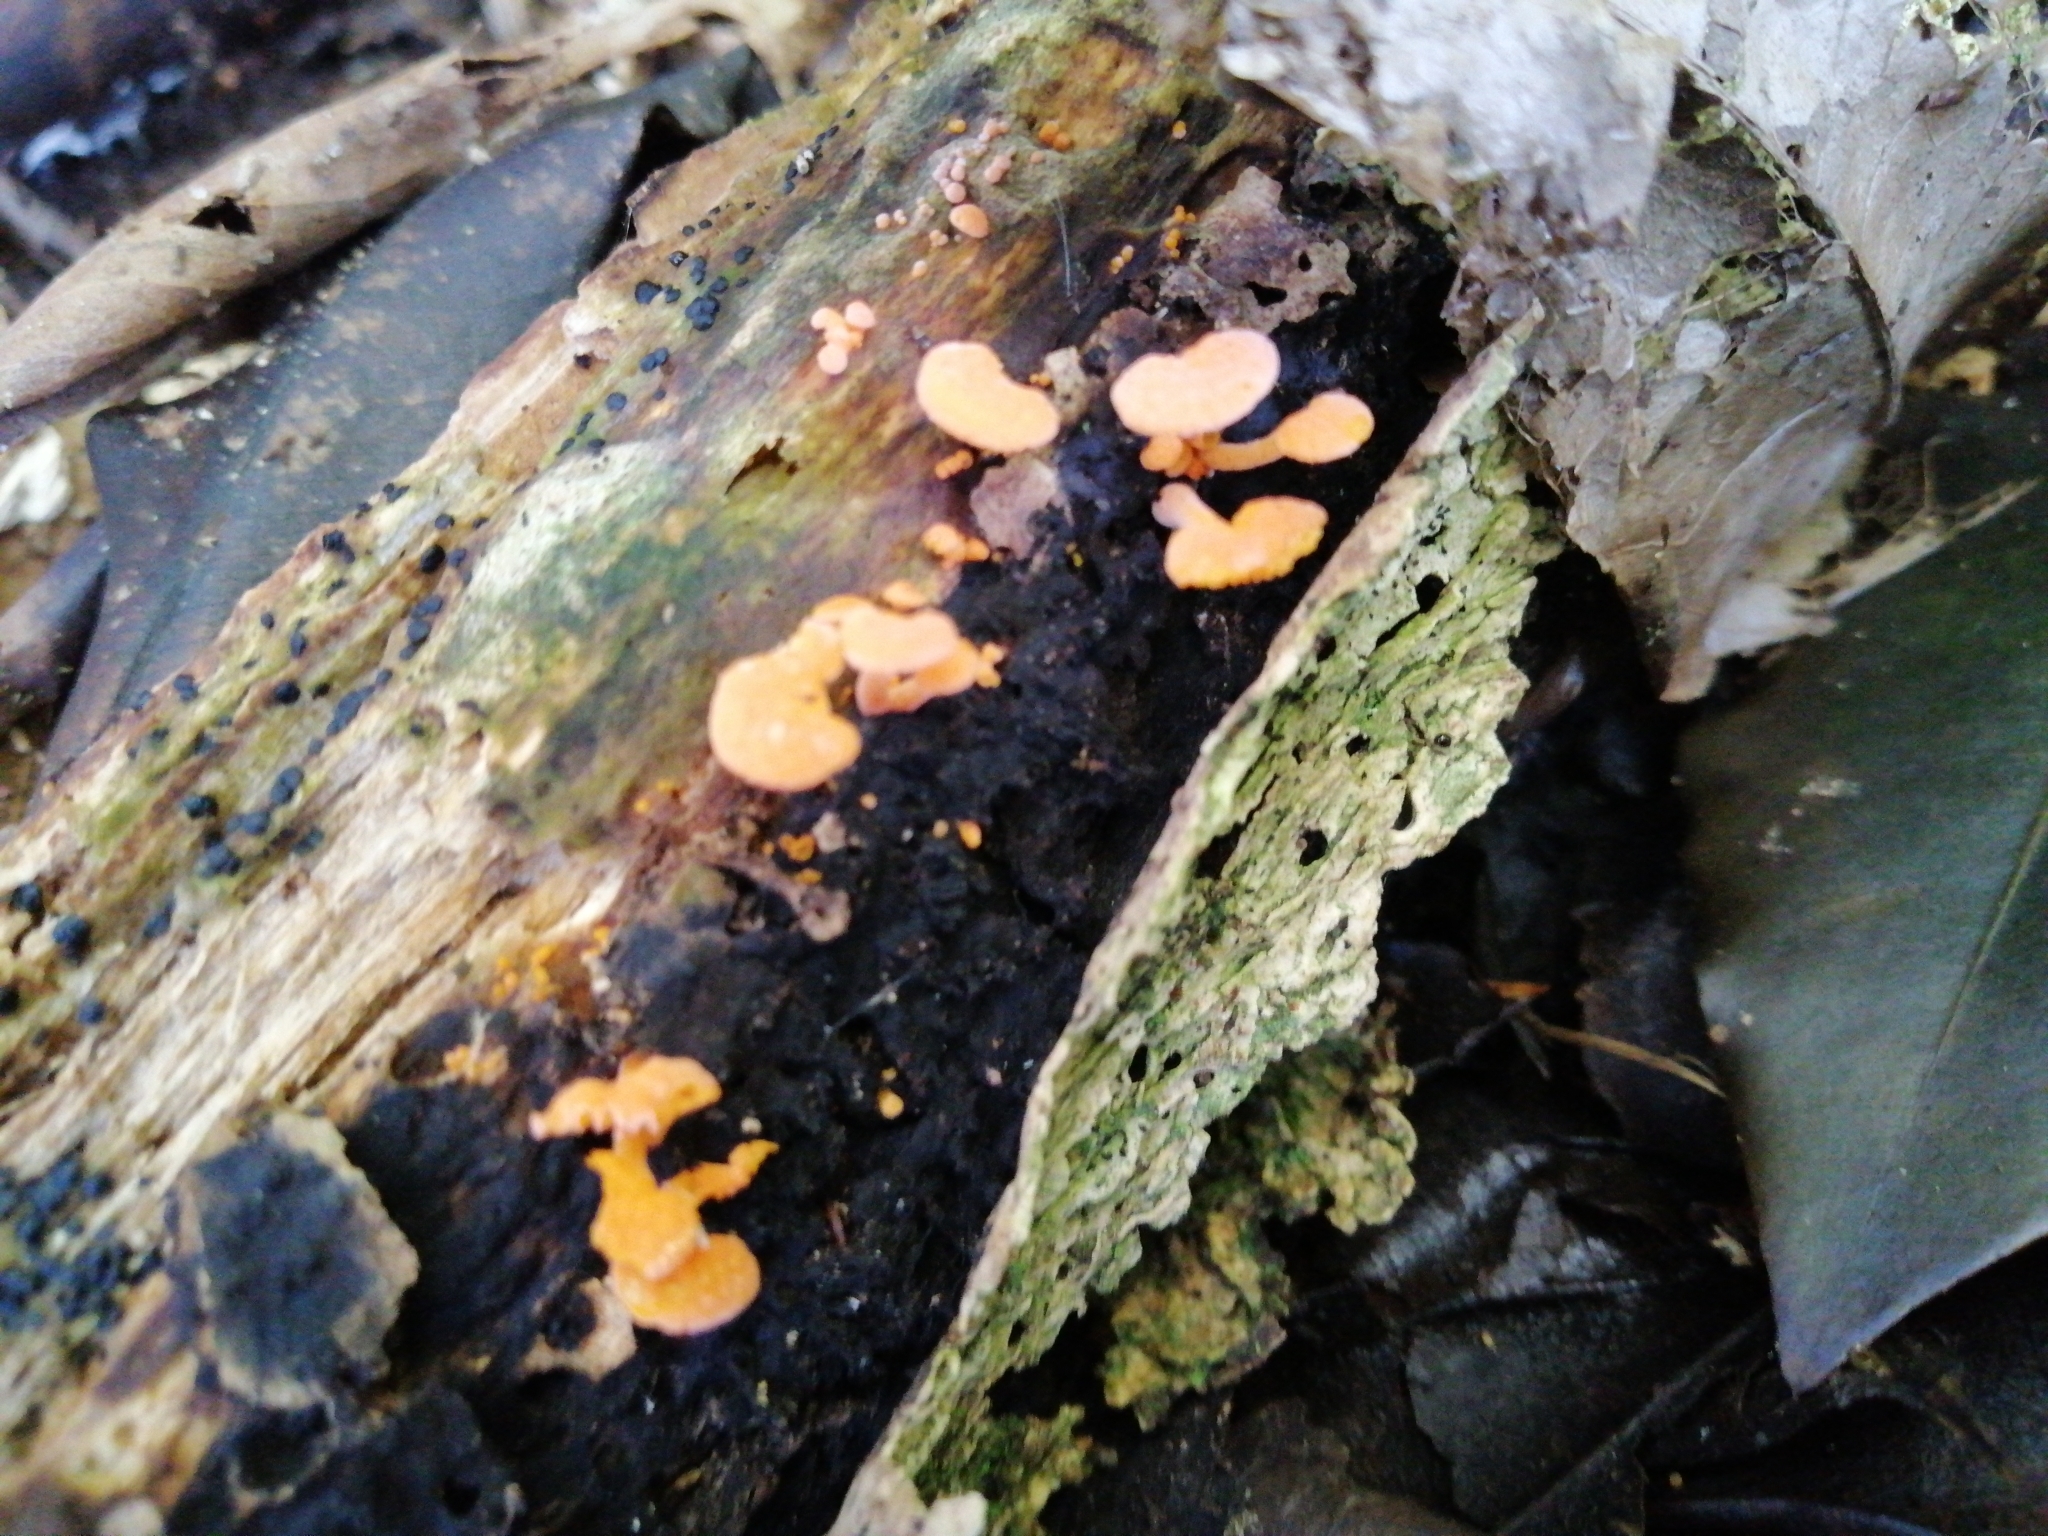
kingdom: Fungi
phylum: Basidiomycota
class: Agaricomycetes
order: Agaricales
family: Mycenaceae
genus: Favolaschia
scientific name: Favolaschia claudopus
